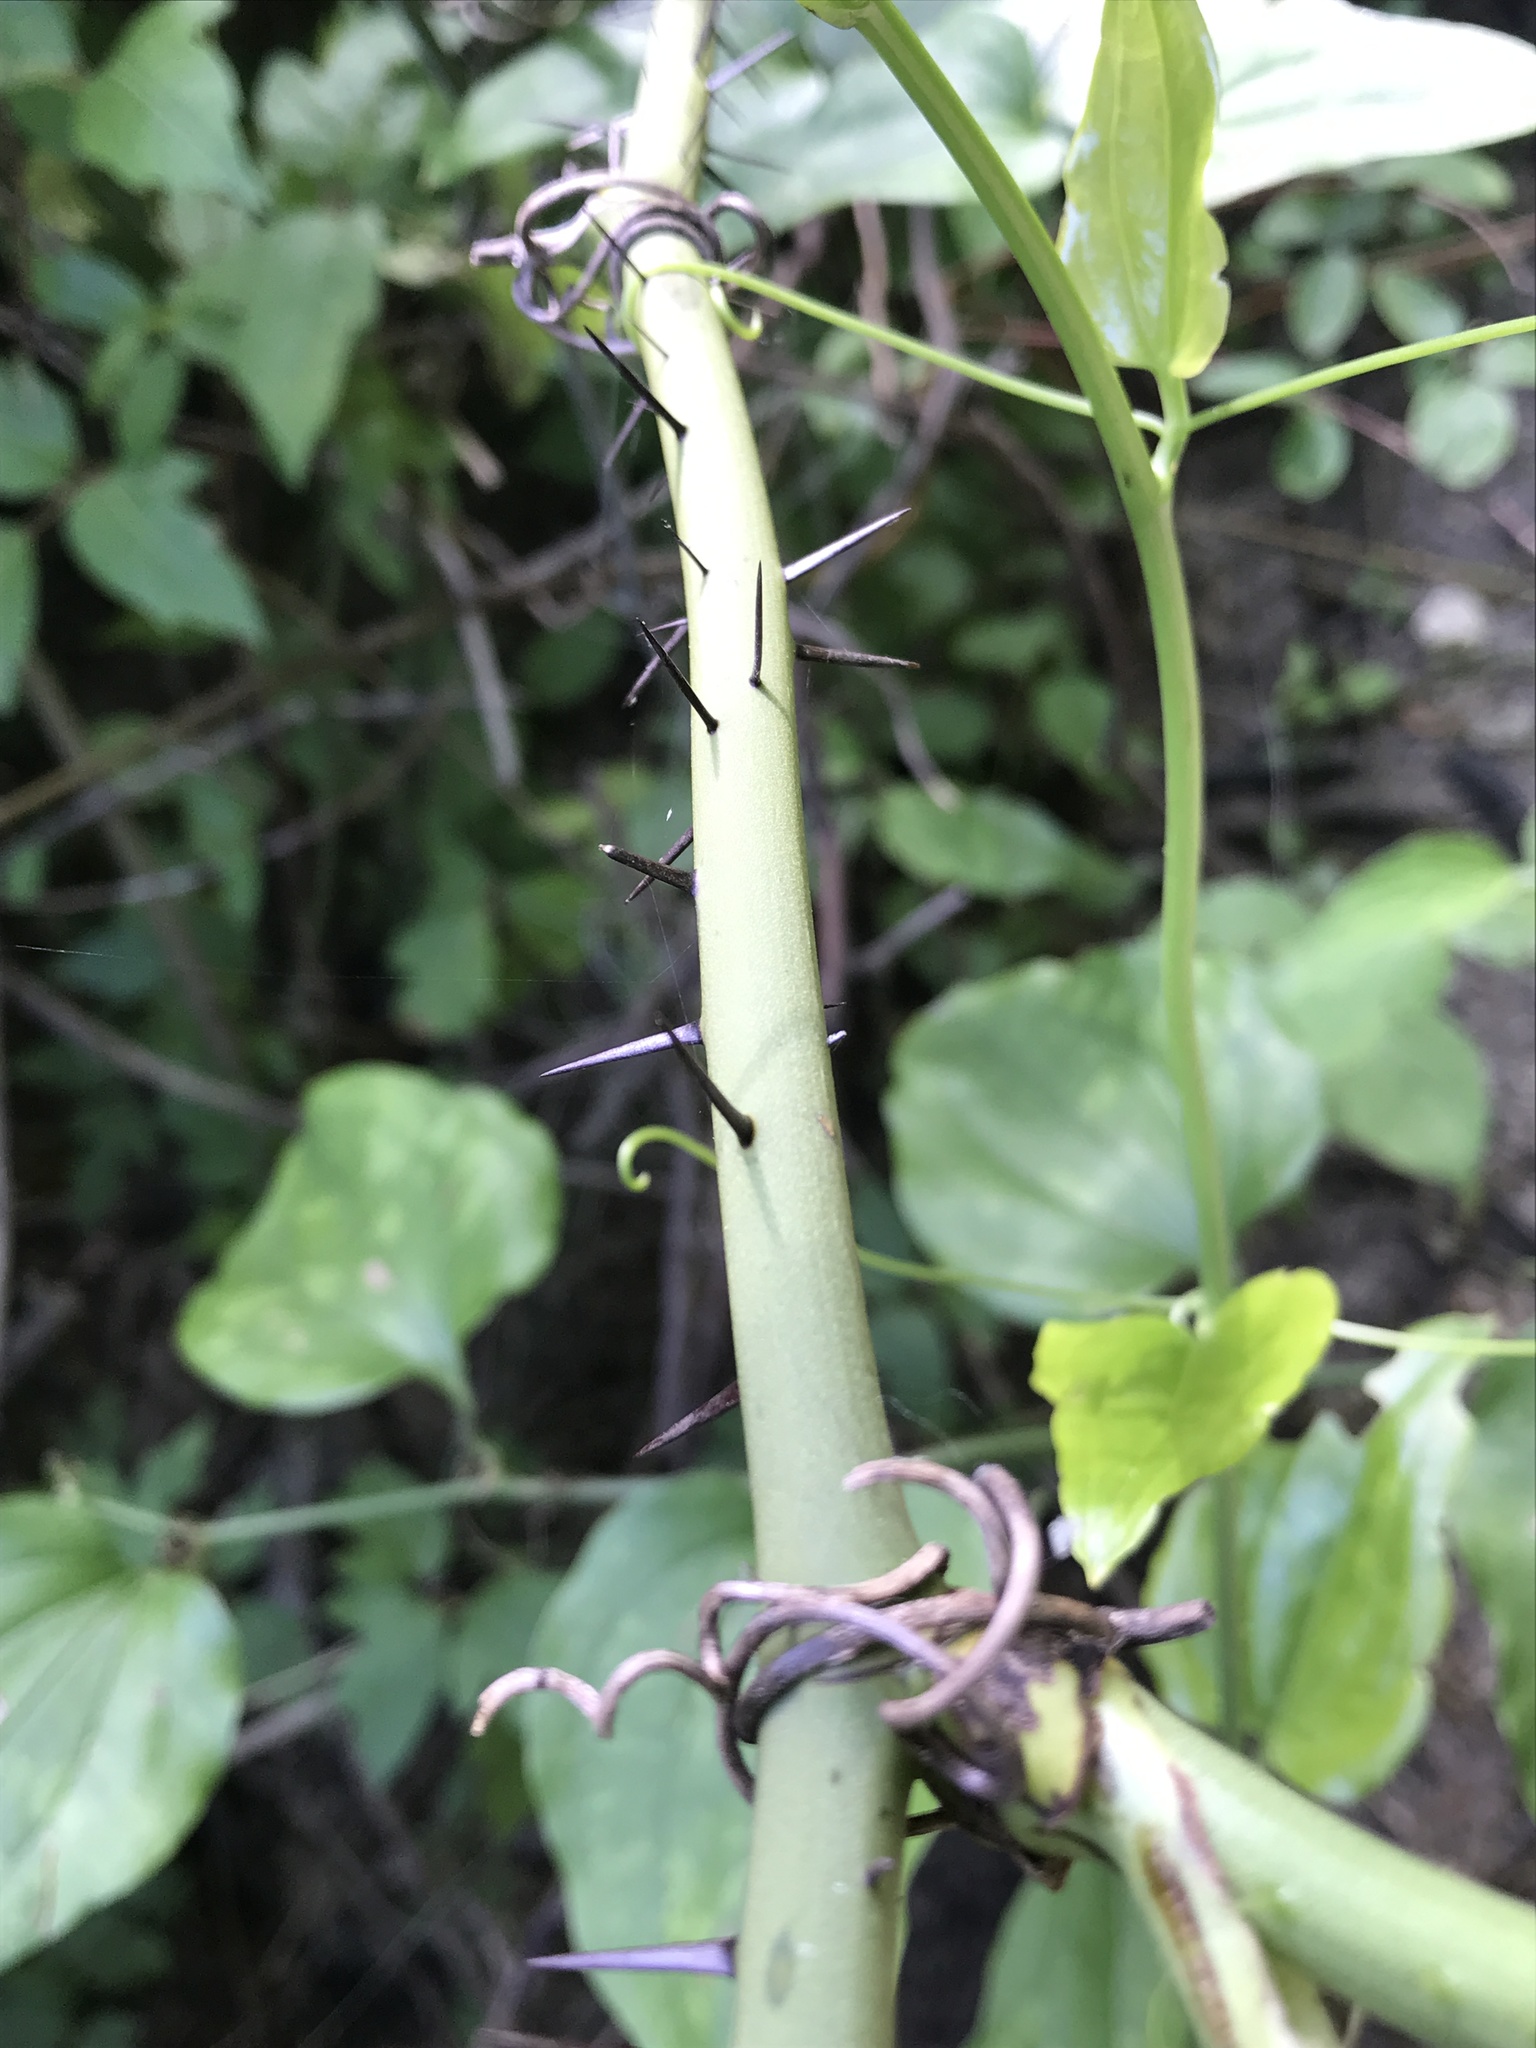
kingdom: Plantae
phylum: Tracheophyta
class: Liliopsida
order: Liliales
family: Smilacaceae
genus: Smilax
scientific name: Smilax tamnoides
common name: Hellfetter
